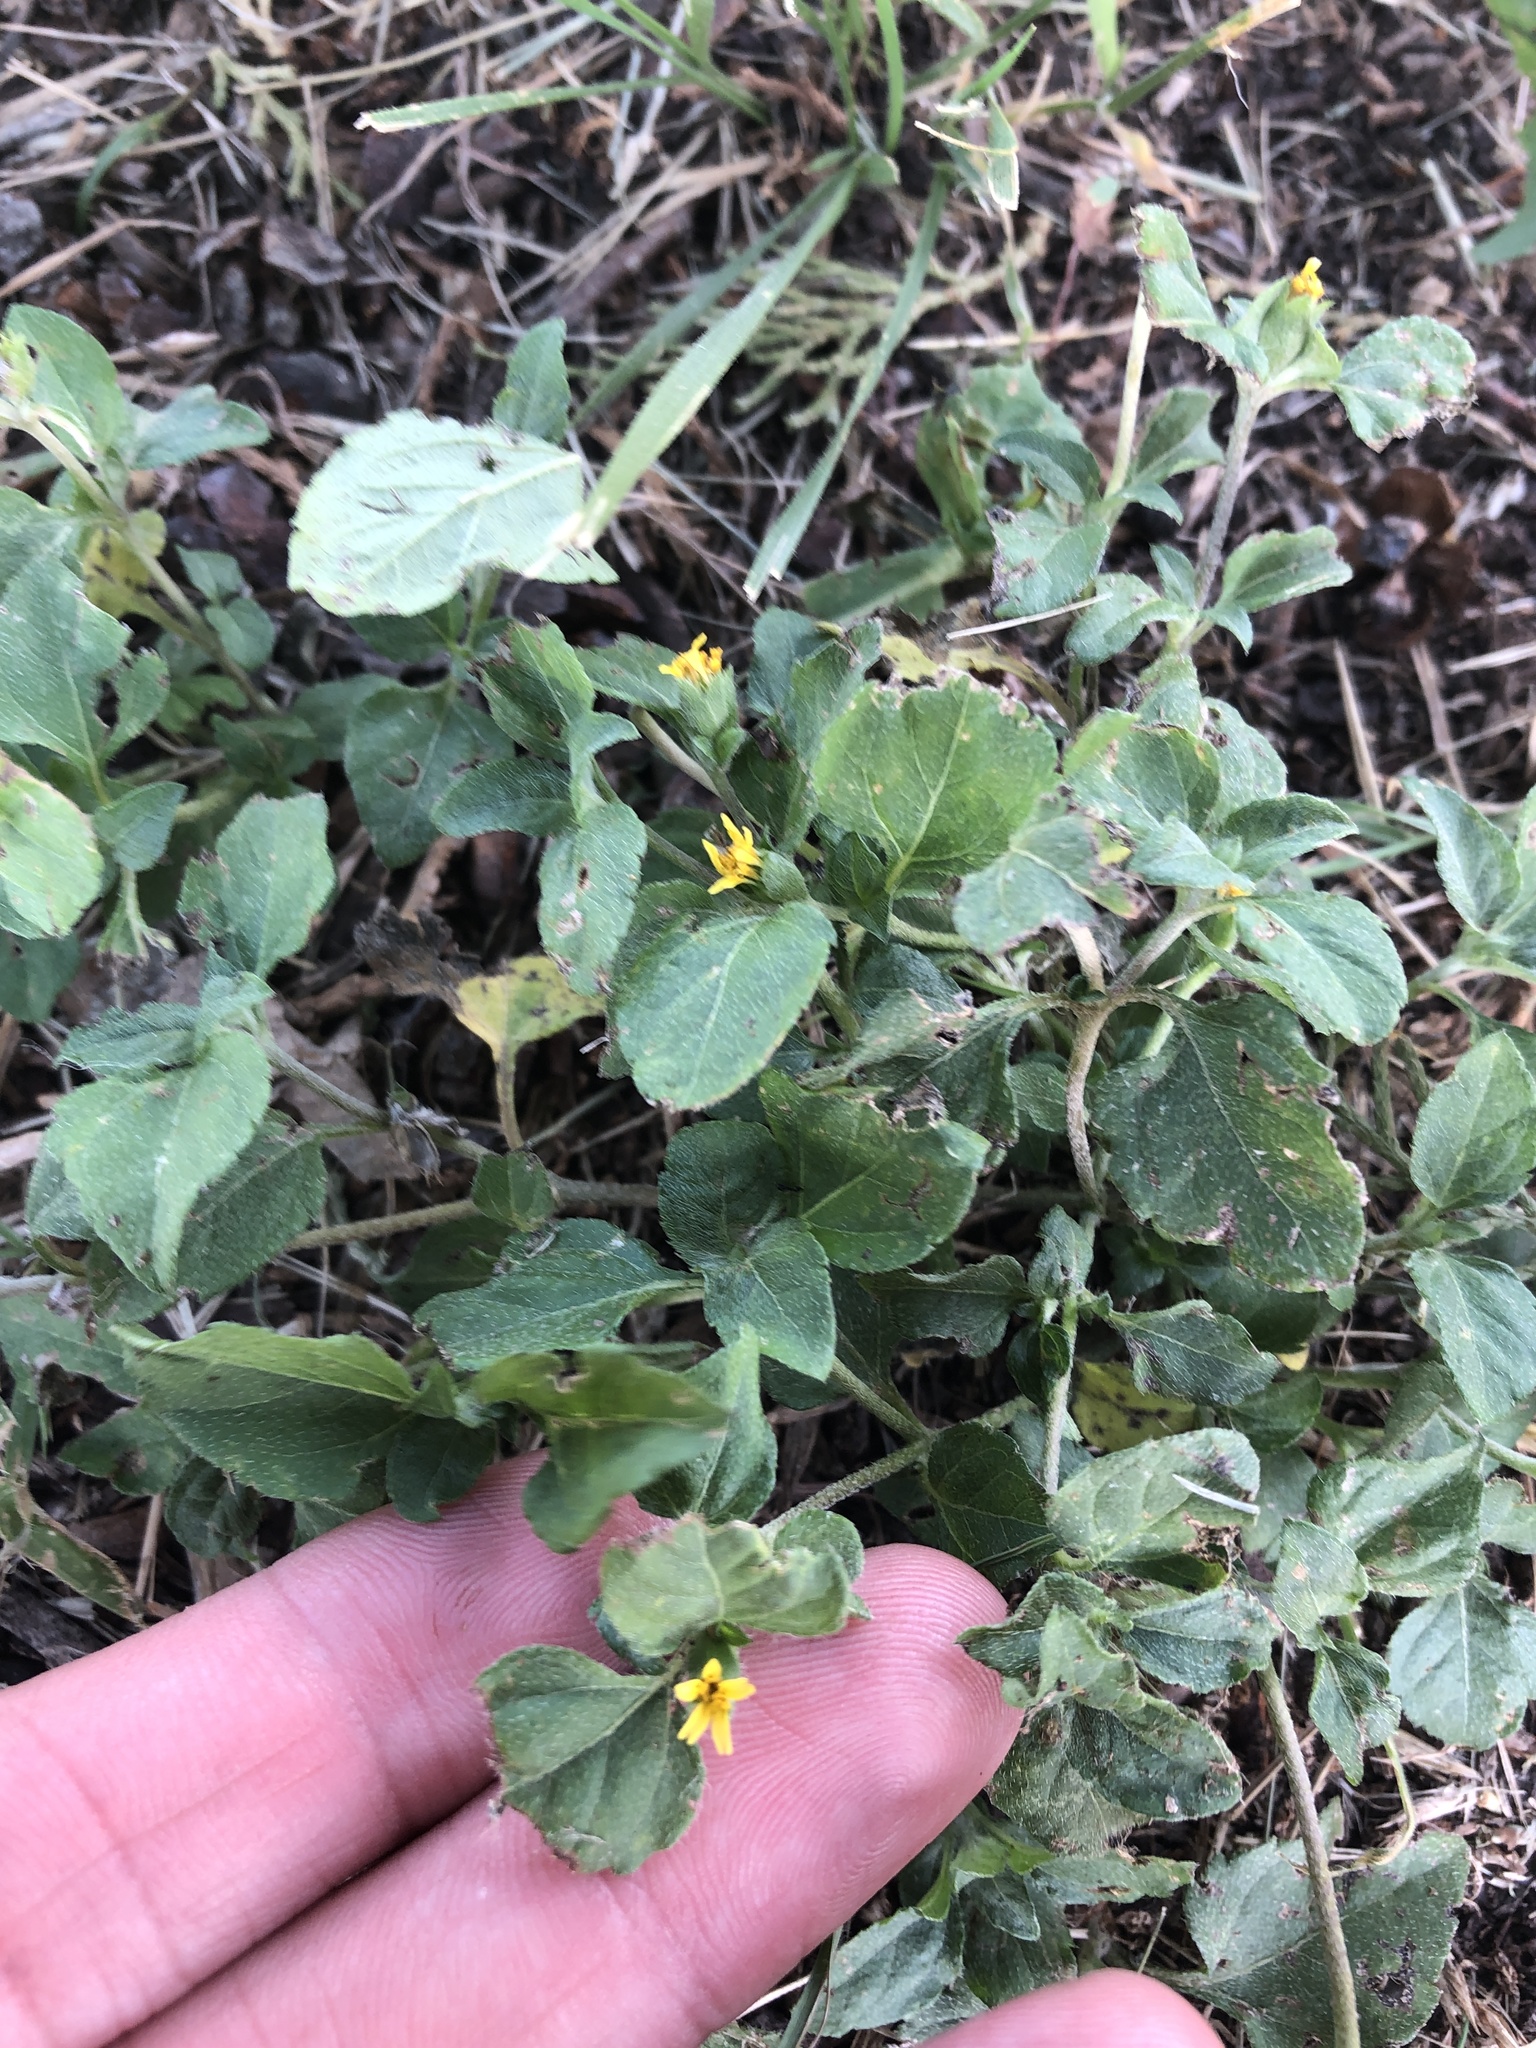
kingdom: Plantae
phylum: Tracheophyta
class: Magnoliopsida
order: Asterales
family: Asteraceae
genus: Calyptocarpus
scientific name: Calyptocarpus vialis
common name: Straggler daisy
